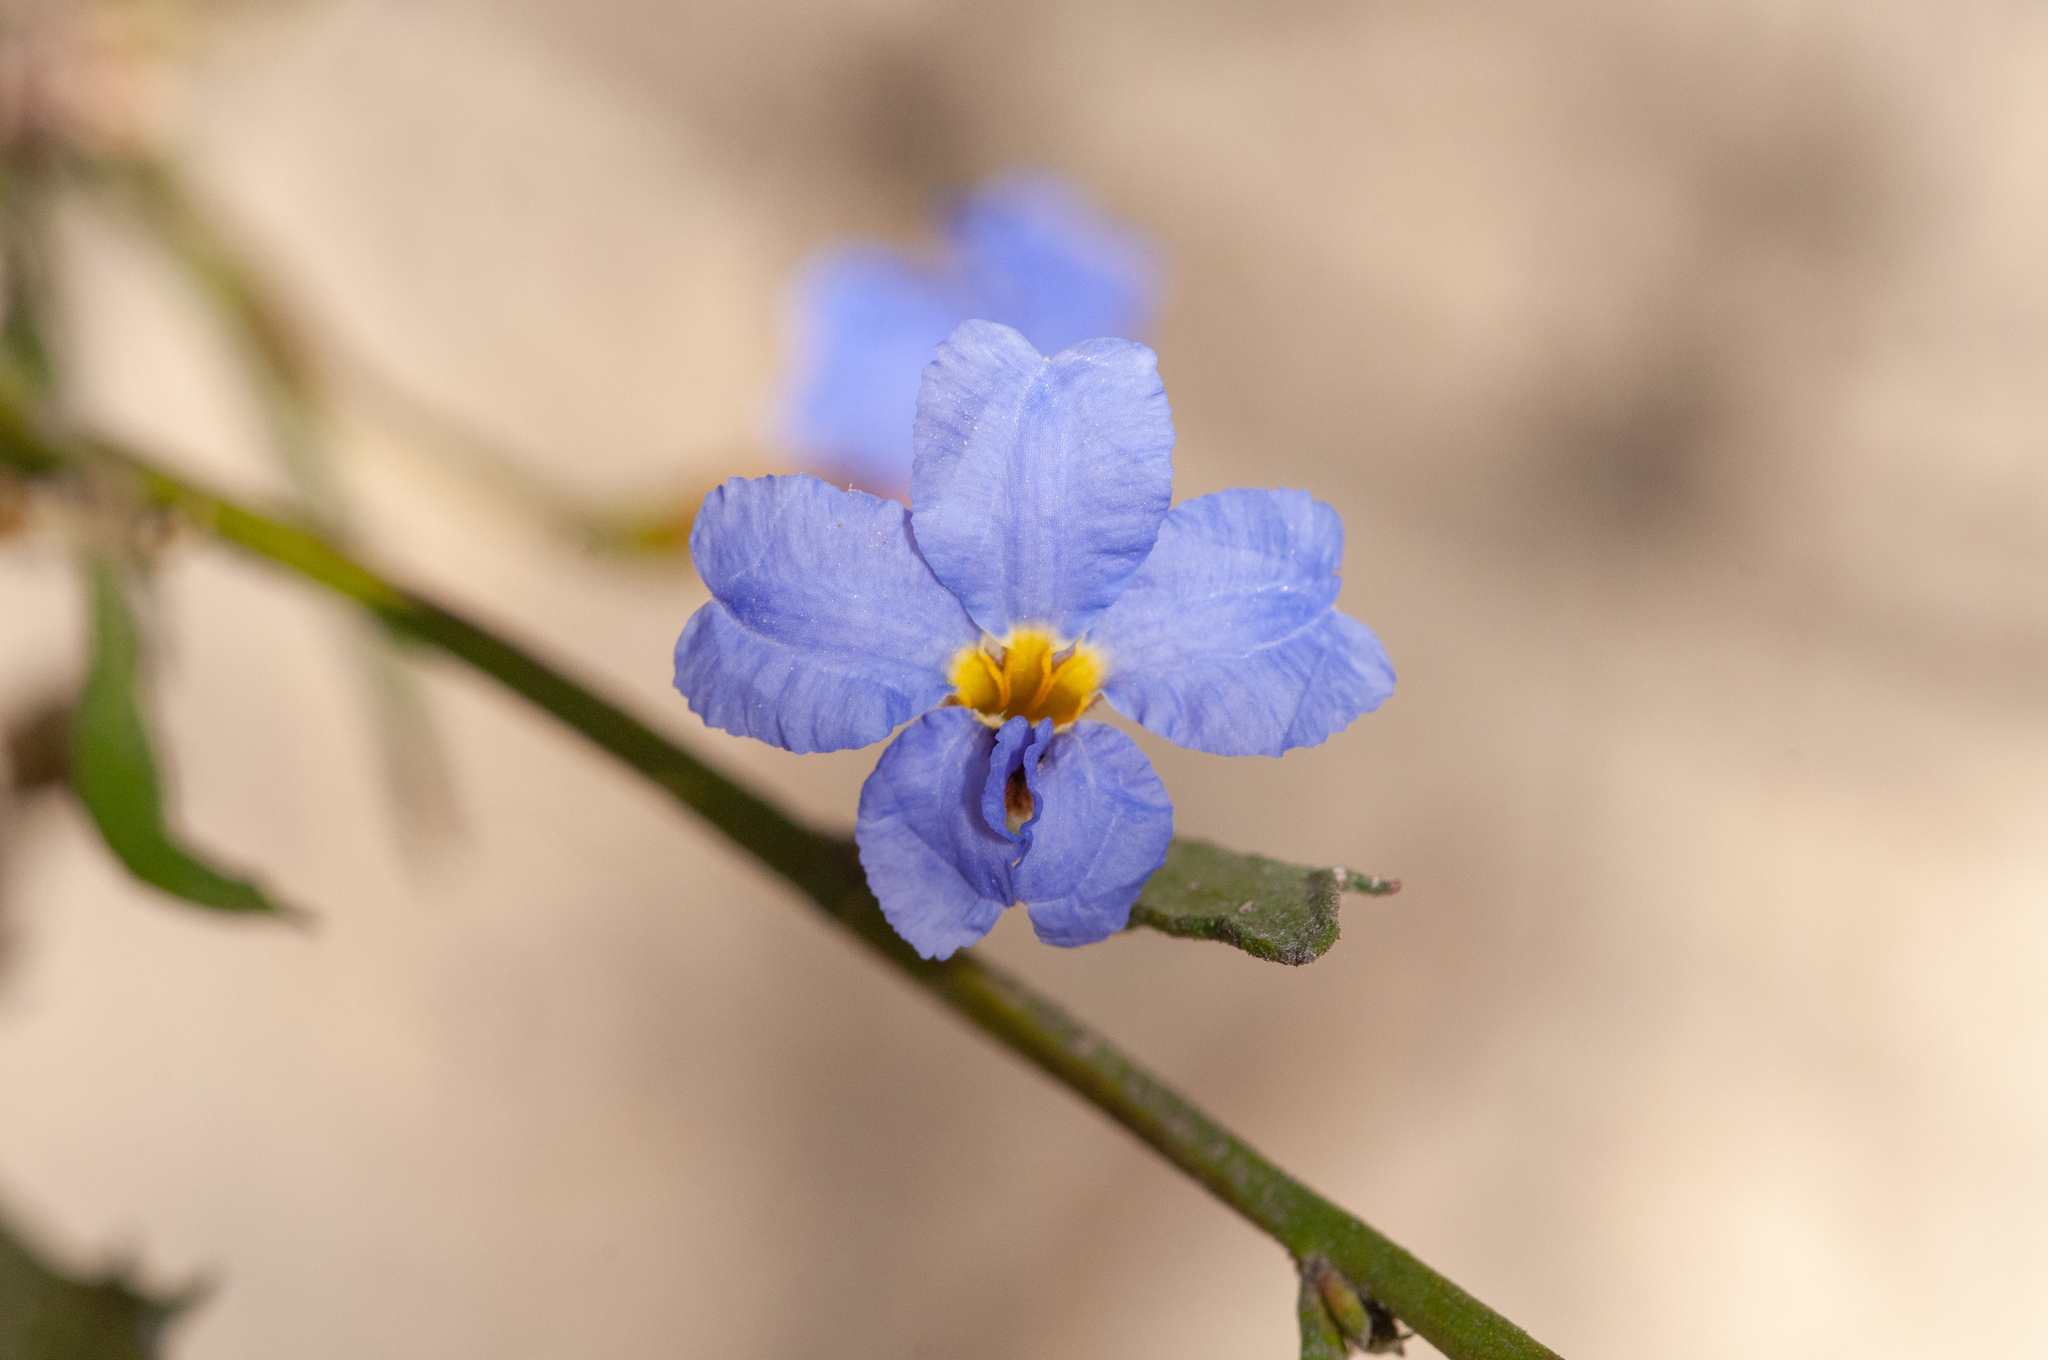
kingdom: Plantae
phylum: Tracheophyta
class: Magnoliopsida
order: Asterales
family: Goodeniaceae
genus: Dampiera
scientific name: Dampiera stricta
